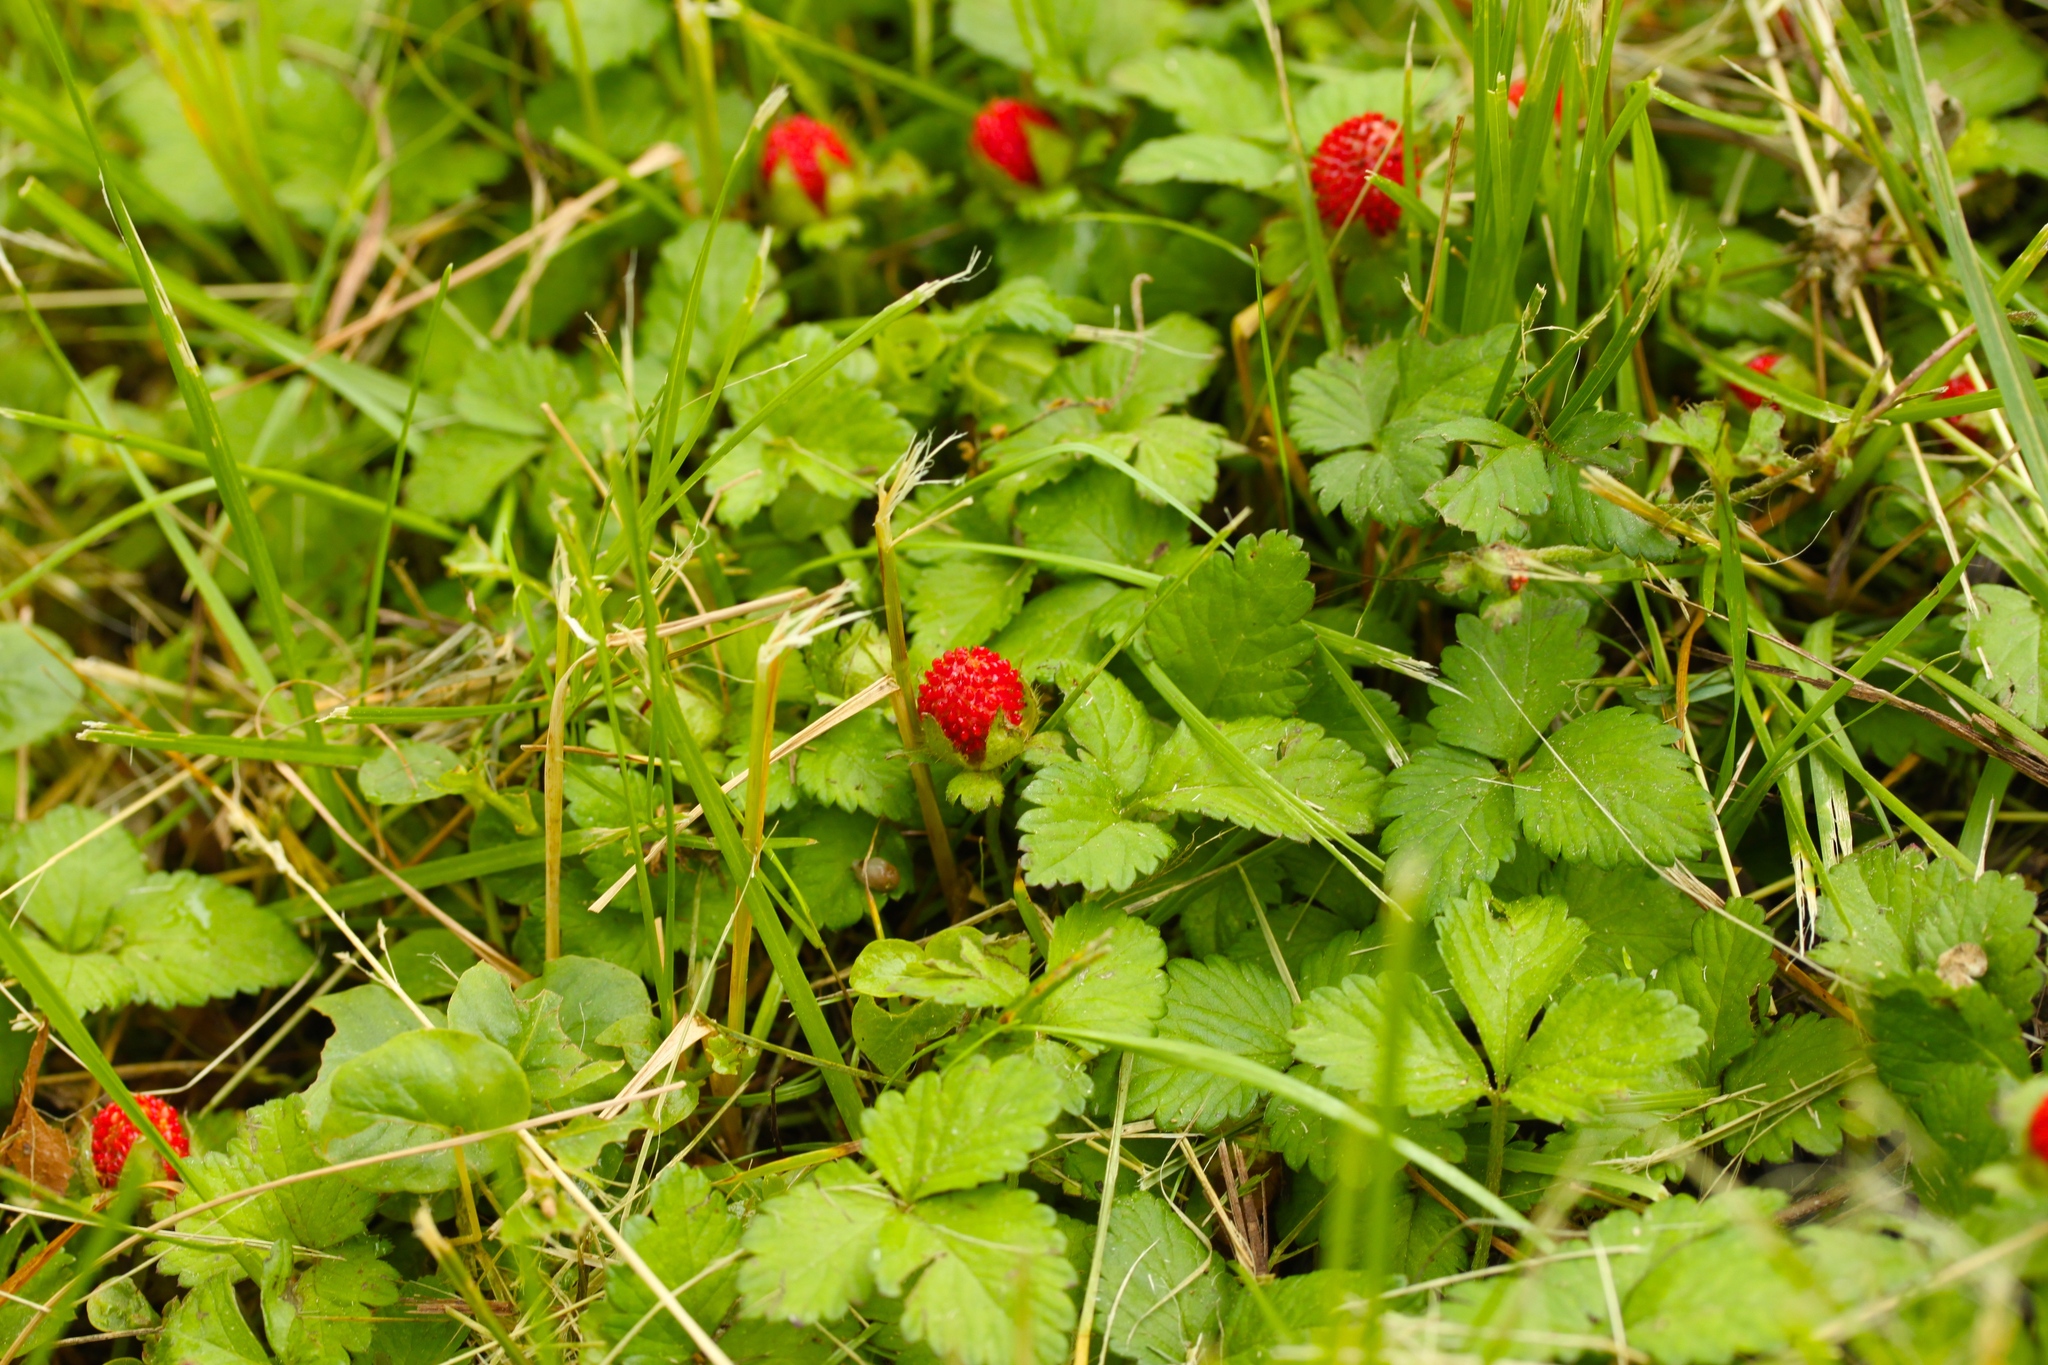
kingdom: Plantae
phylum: Tracheophyta
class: Magnoliopsida
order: Rosales
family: Rosaceae
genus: Potentilla
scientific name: Potentilla indica
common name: Yellow-flowered strawberry
